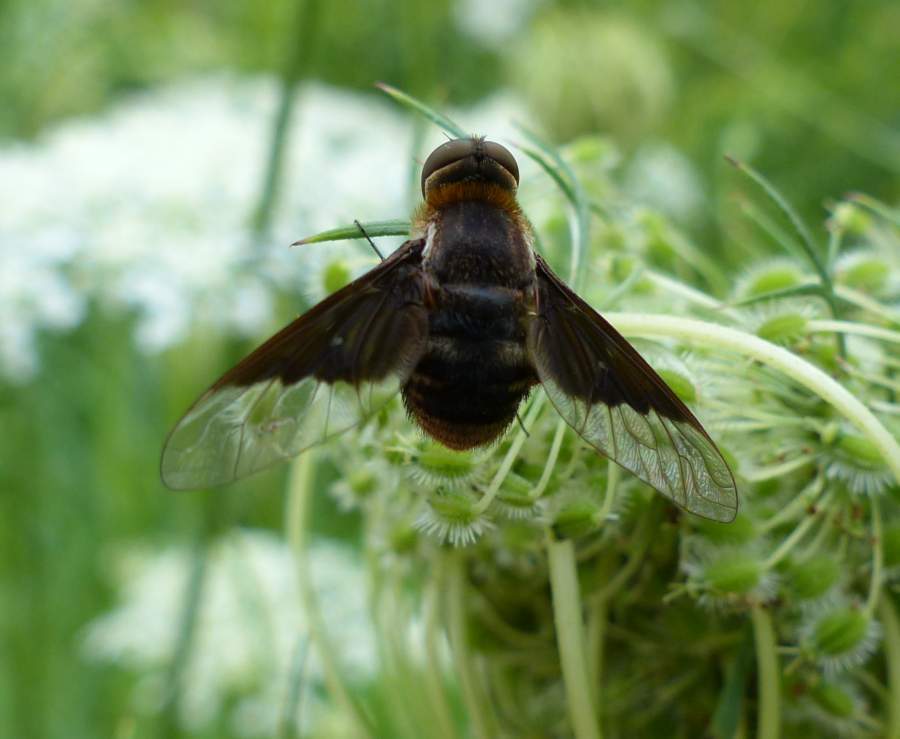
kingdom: Animalia
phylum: Arthropoda
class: Insecta
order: Diptera
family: Bombyliidae
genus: Paravilla
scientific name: Paravilla separata
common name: Paravilla separata
